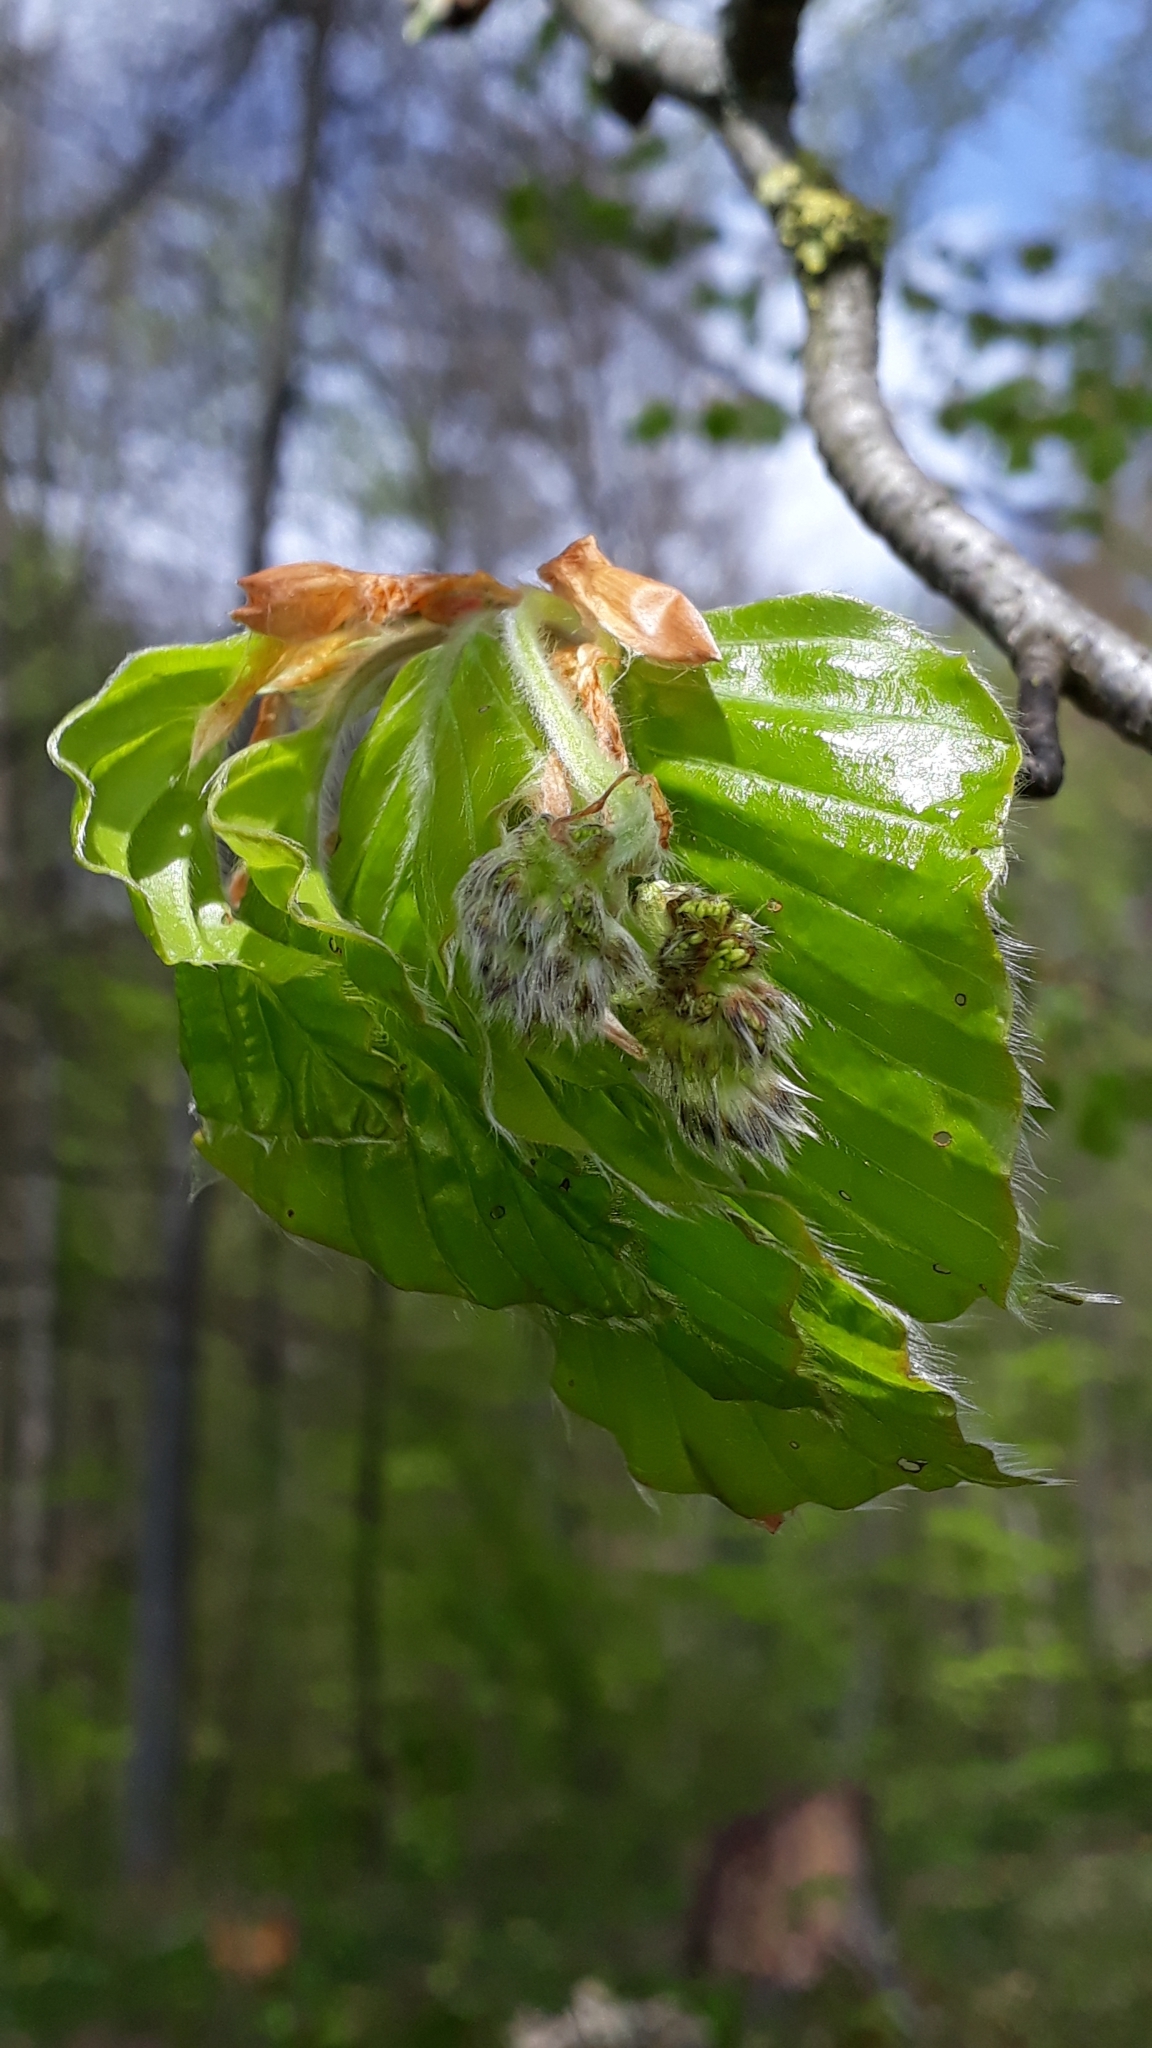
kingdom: Plantae
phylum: Tracheophyta
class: Magnoliopsida
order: Fagales
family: Fagaceae
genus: Fagus
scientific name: Fagus sylvatica
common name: Beech
